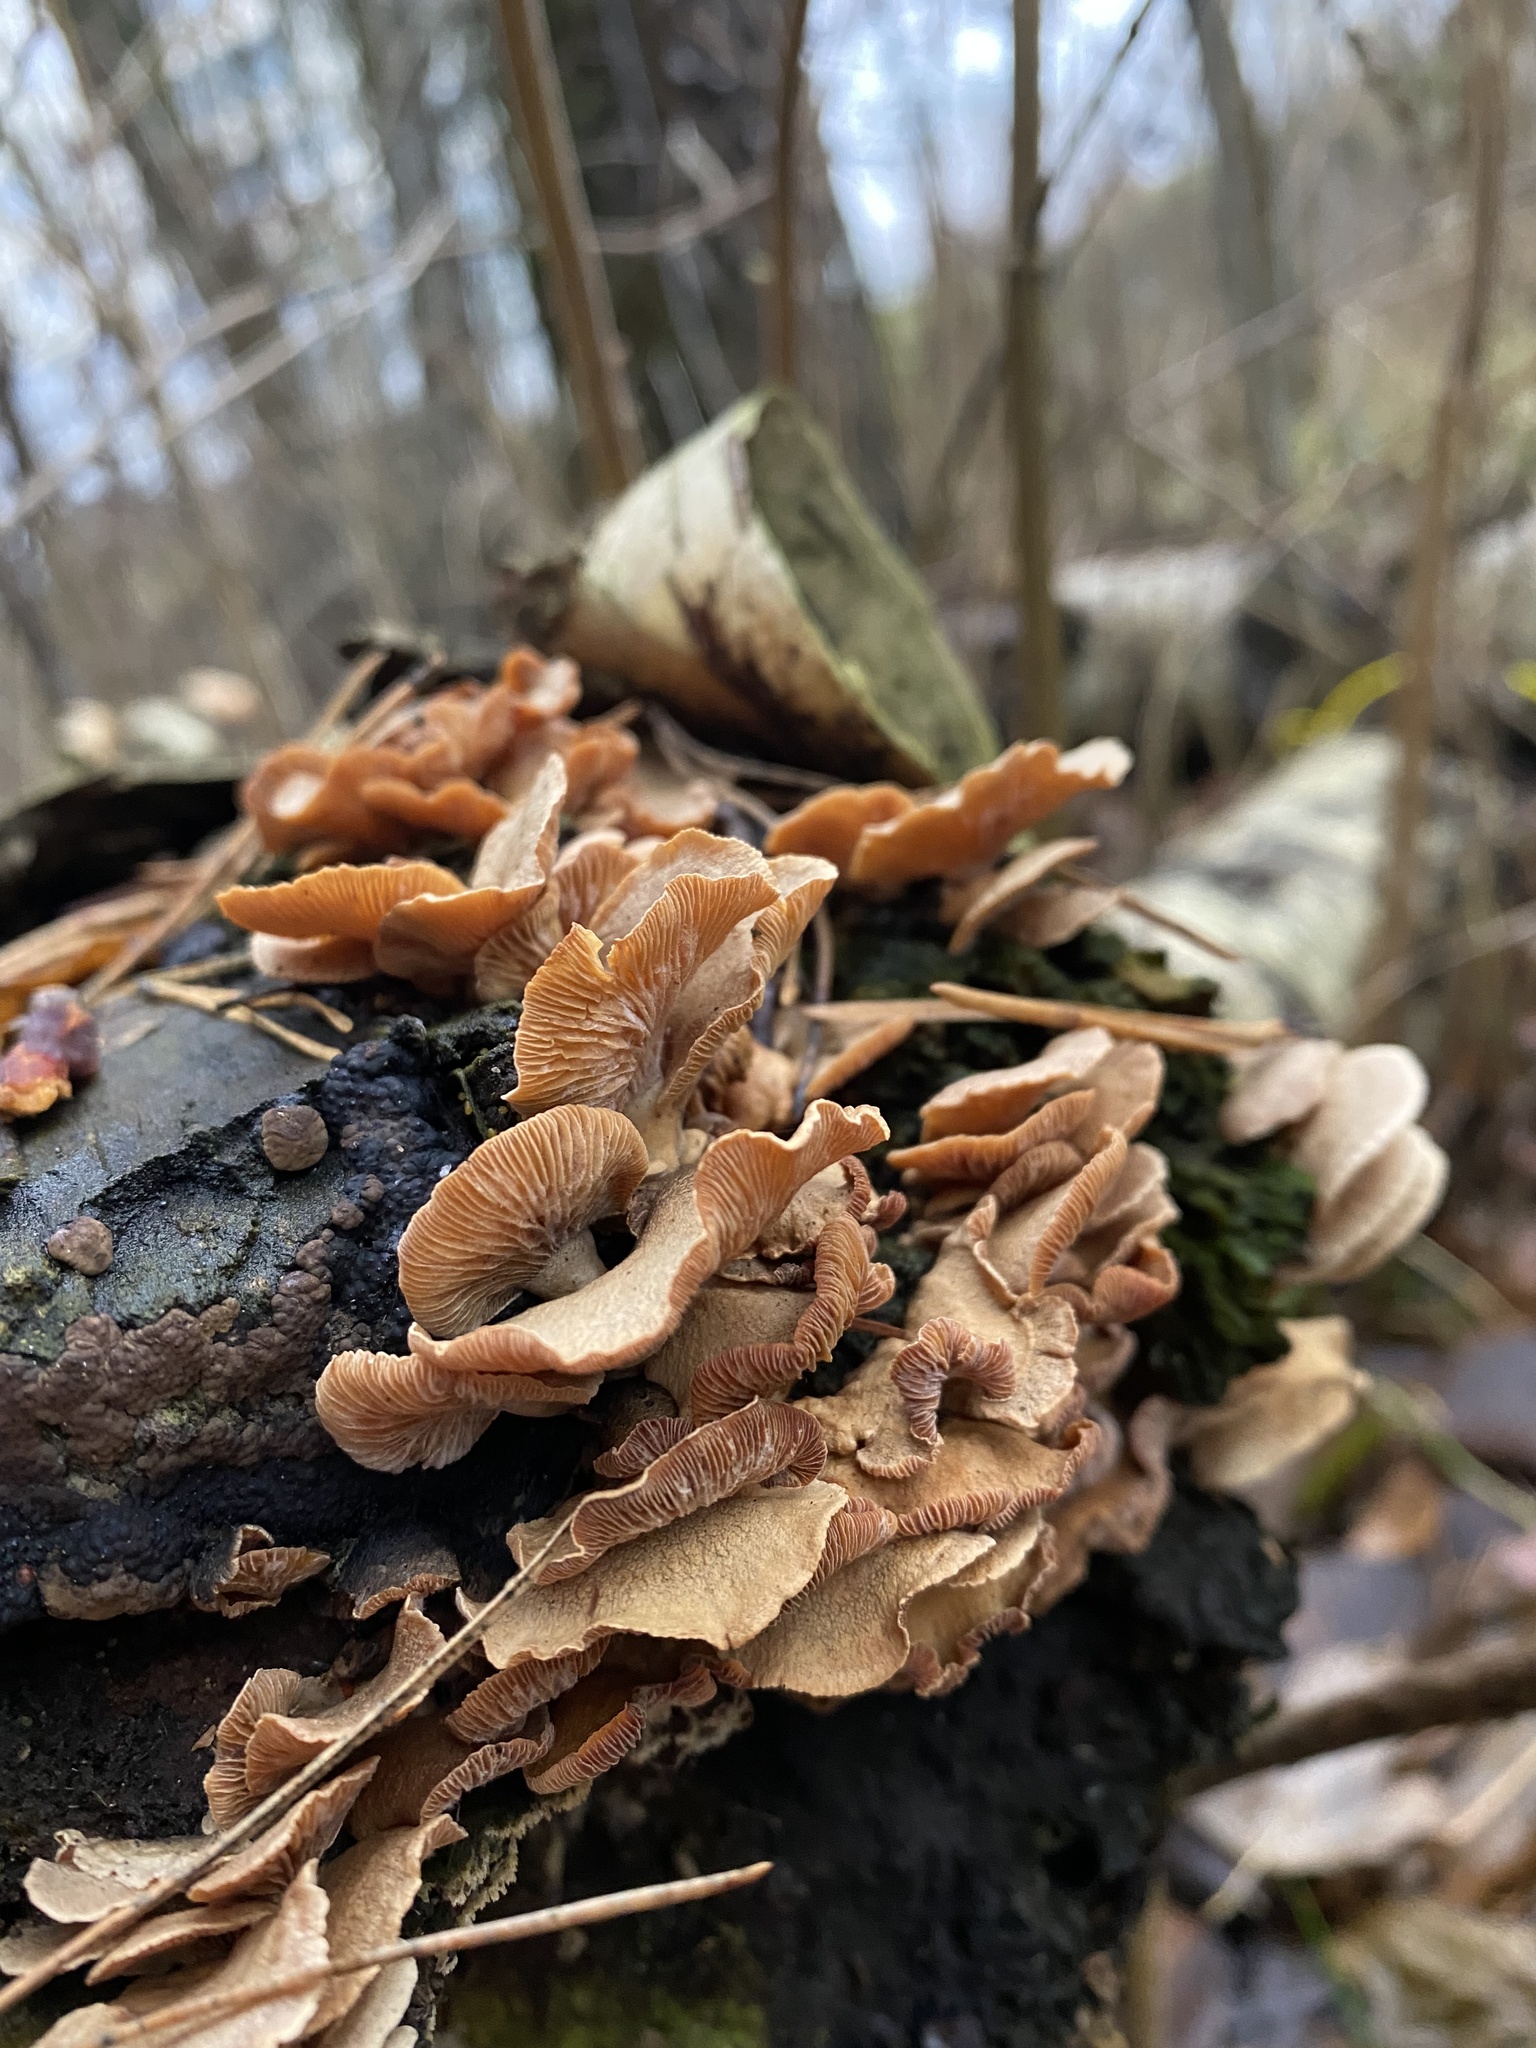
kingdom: Fungi
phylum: Basidiomycota
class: Agaricomycetes
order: Agaricales
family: Phyllotopsidaceae
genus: Phyllotopsis
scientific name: Phyllotopsis nidulans
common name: Orange mock oyster
